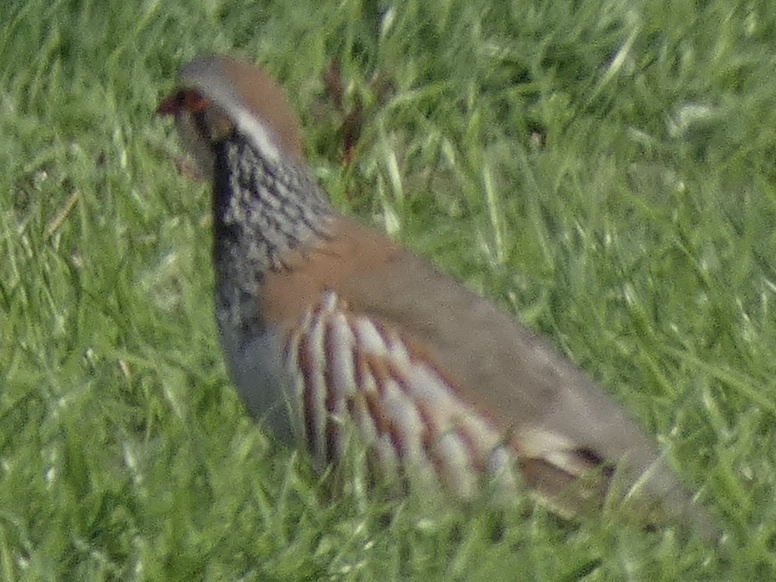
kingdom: Animalia
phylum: Chordata
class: Aves
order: Galliformes
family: Phasianidae
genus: Alectoris
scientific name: Alectoris rufa
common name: Red-legged partridge
